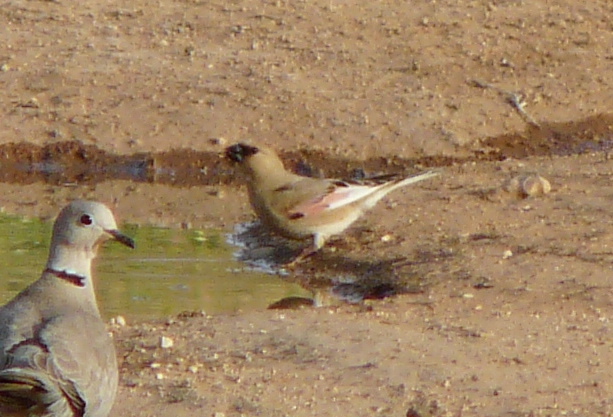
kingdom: Animalia
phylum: Chordata
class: Aves
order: Passeriformes
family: Fringillidae
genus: Rhodospiza
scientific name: Rhodospiza obsoleta
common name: Desert finch
